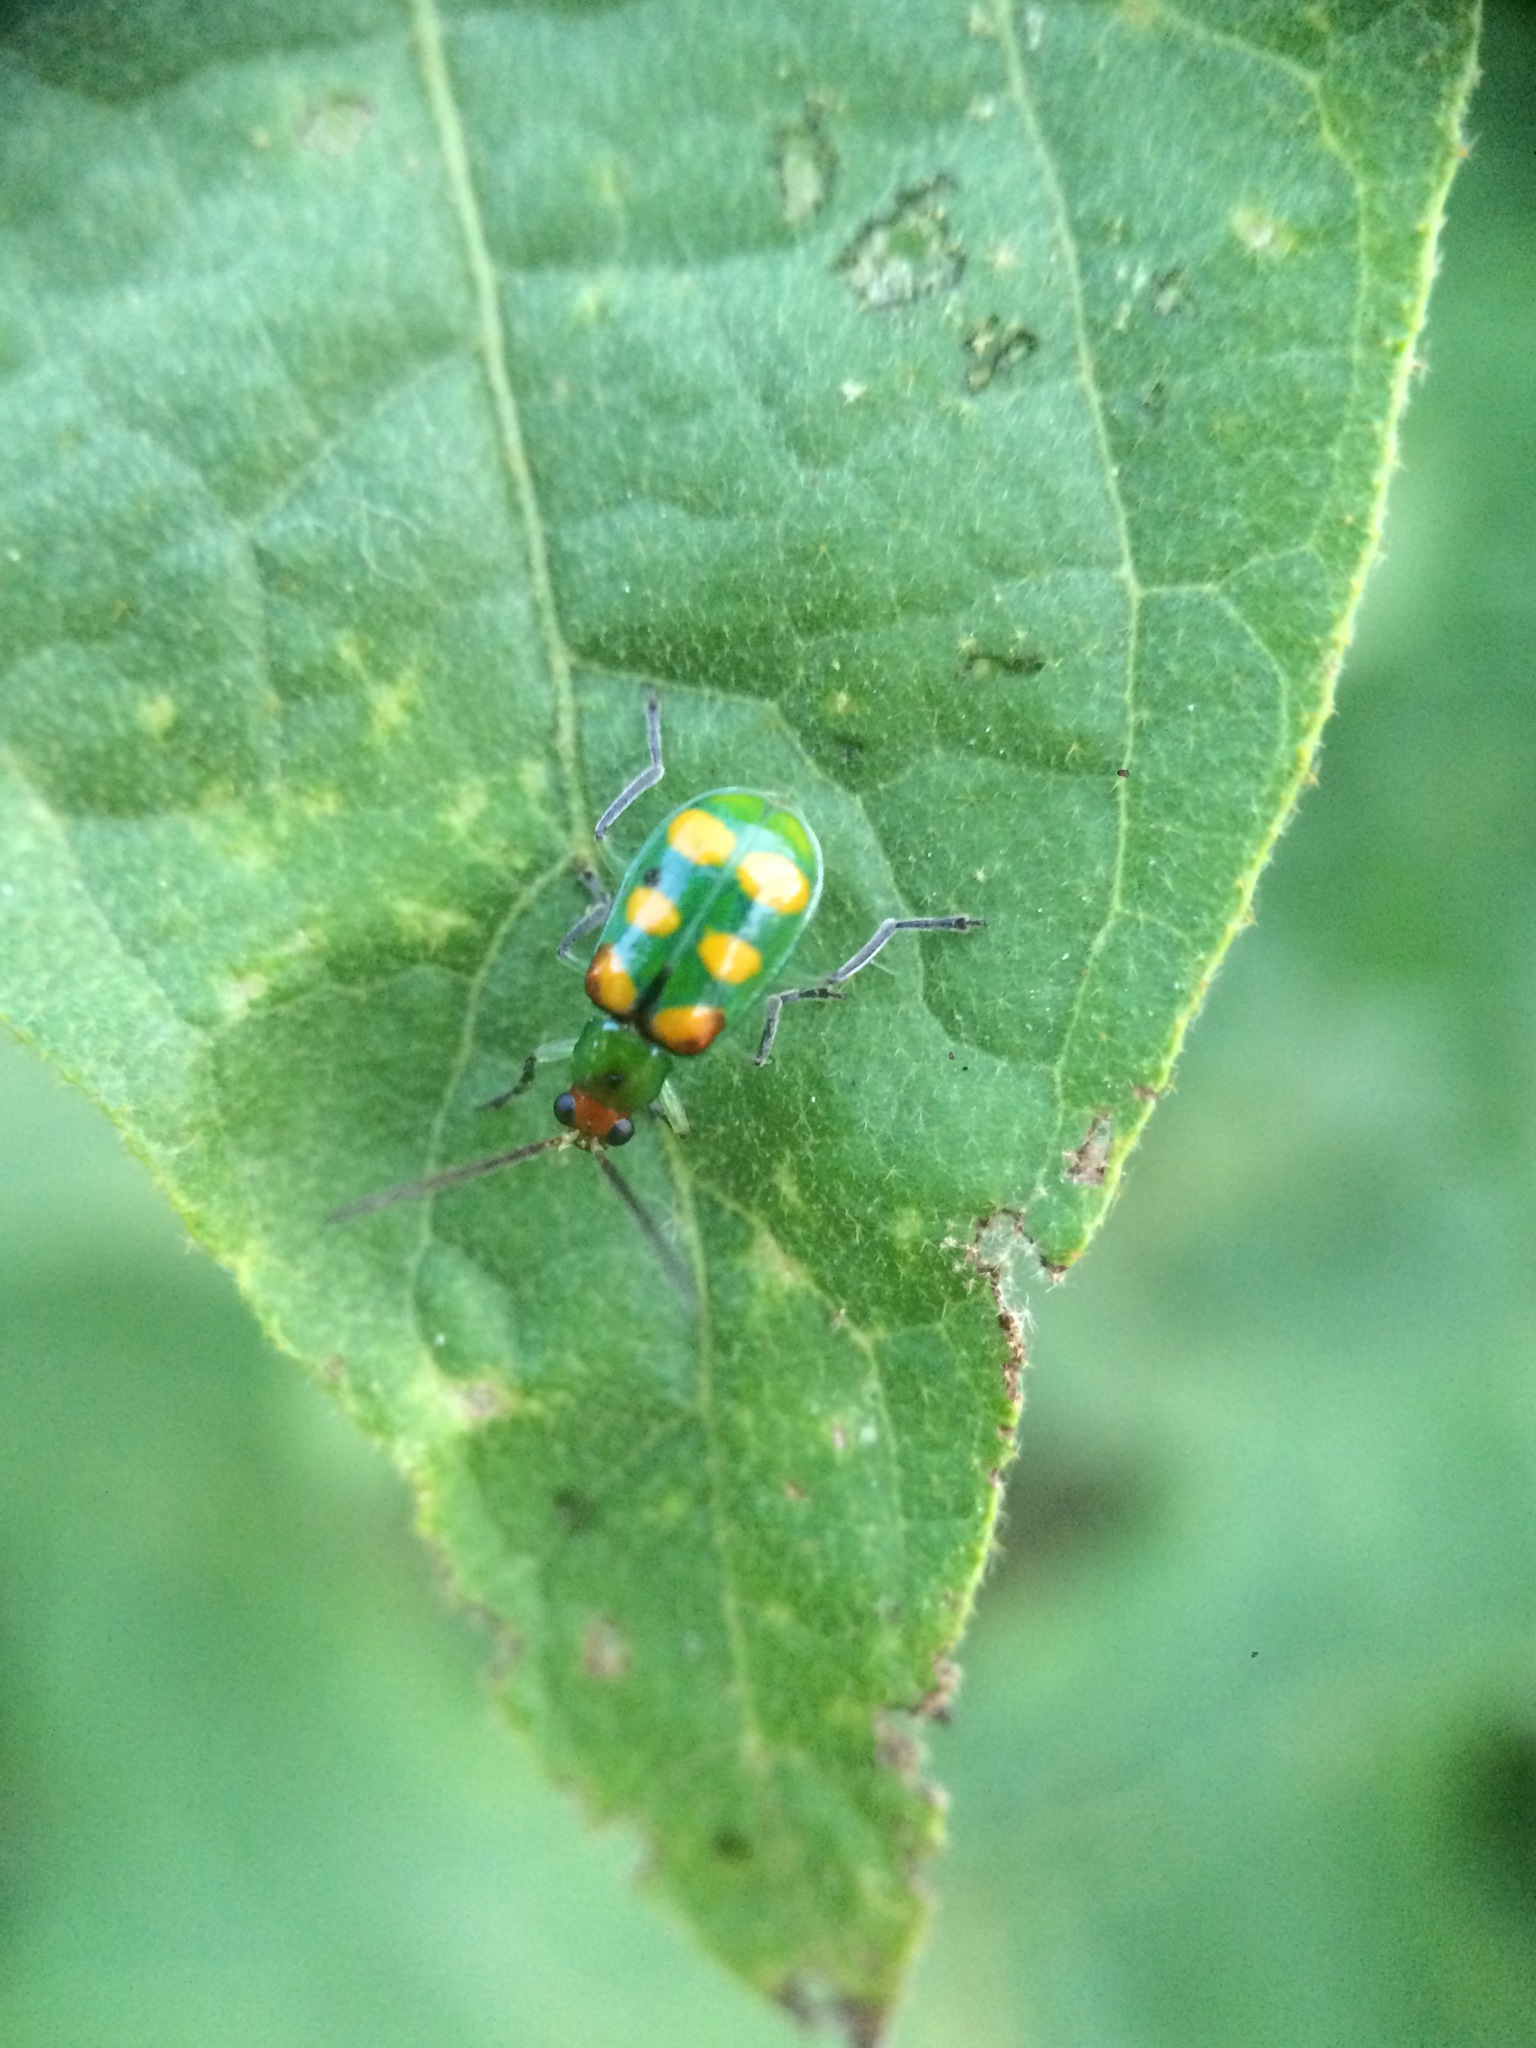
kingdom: Animalia
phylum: Arthropoda
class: Insecta
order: Coleoptera
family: Chrysomelidae
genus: Diabrotica
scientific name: Diabrotica speciosa
